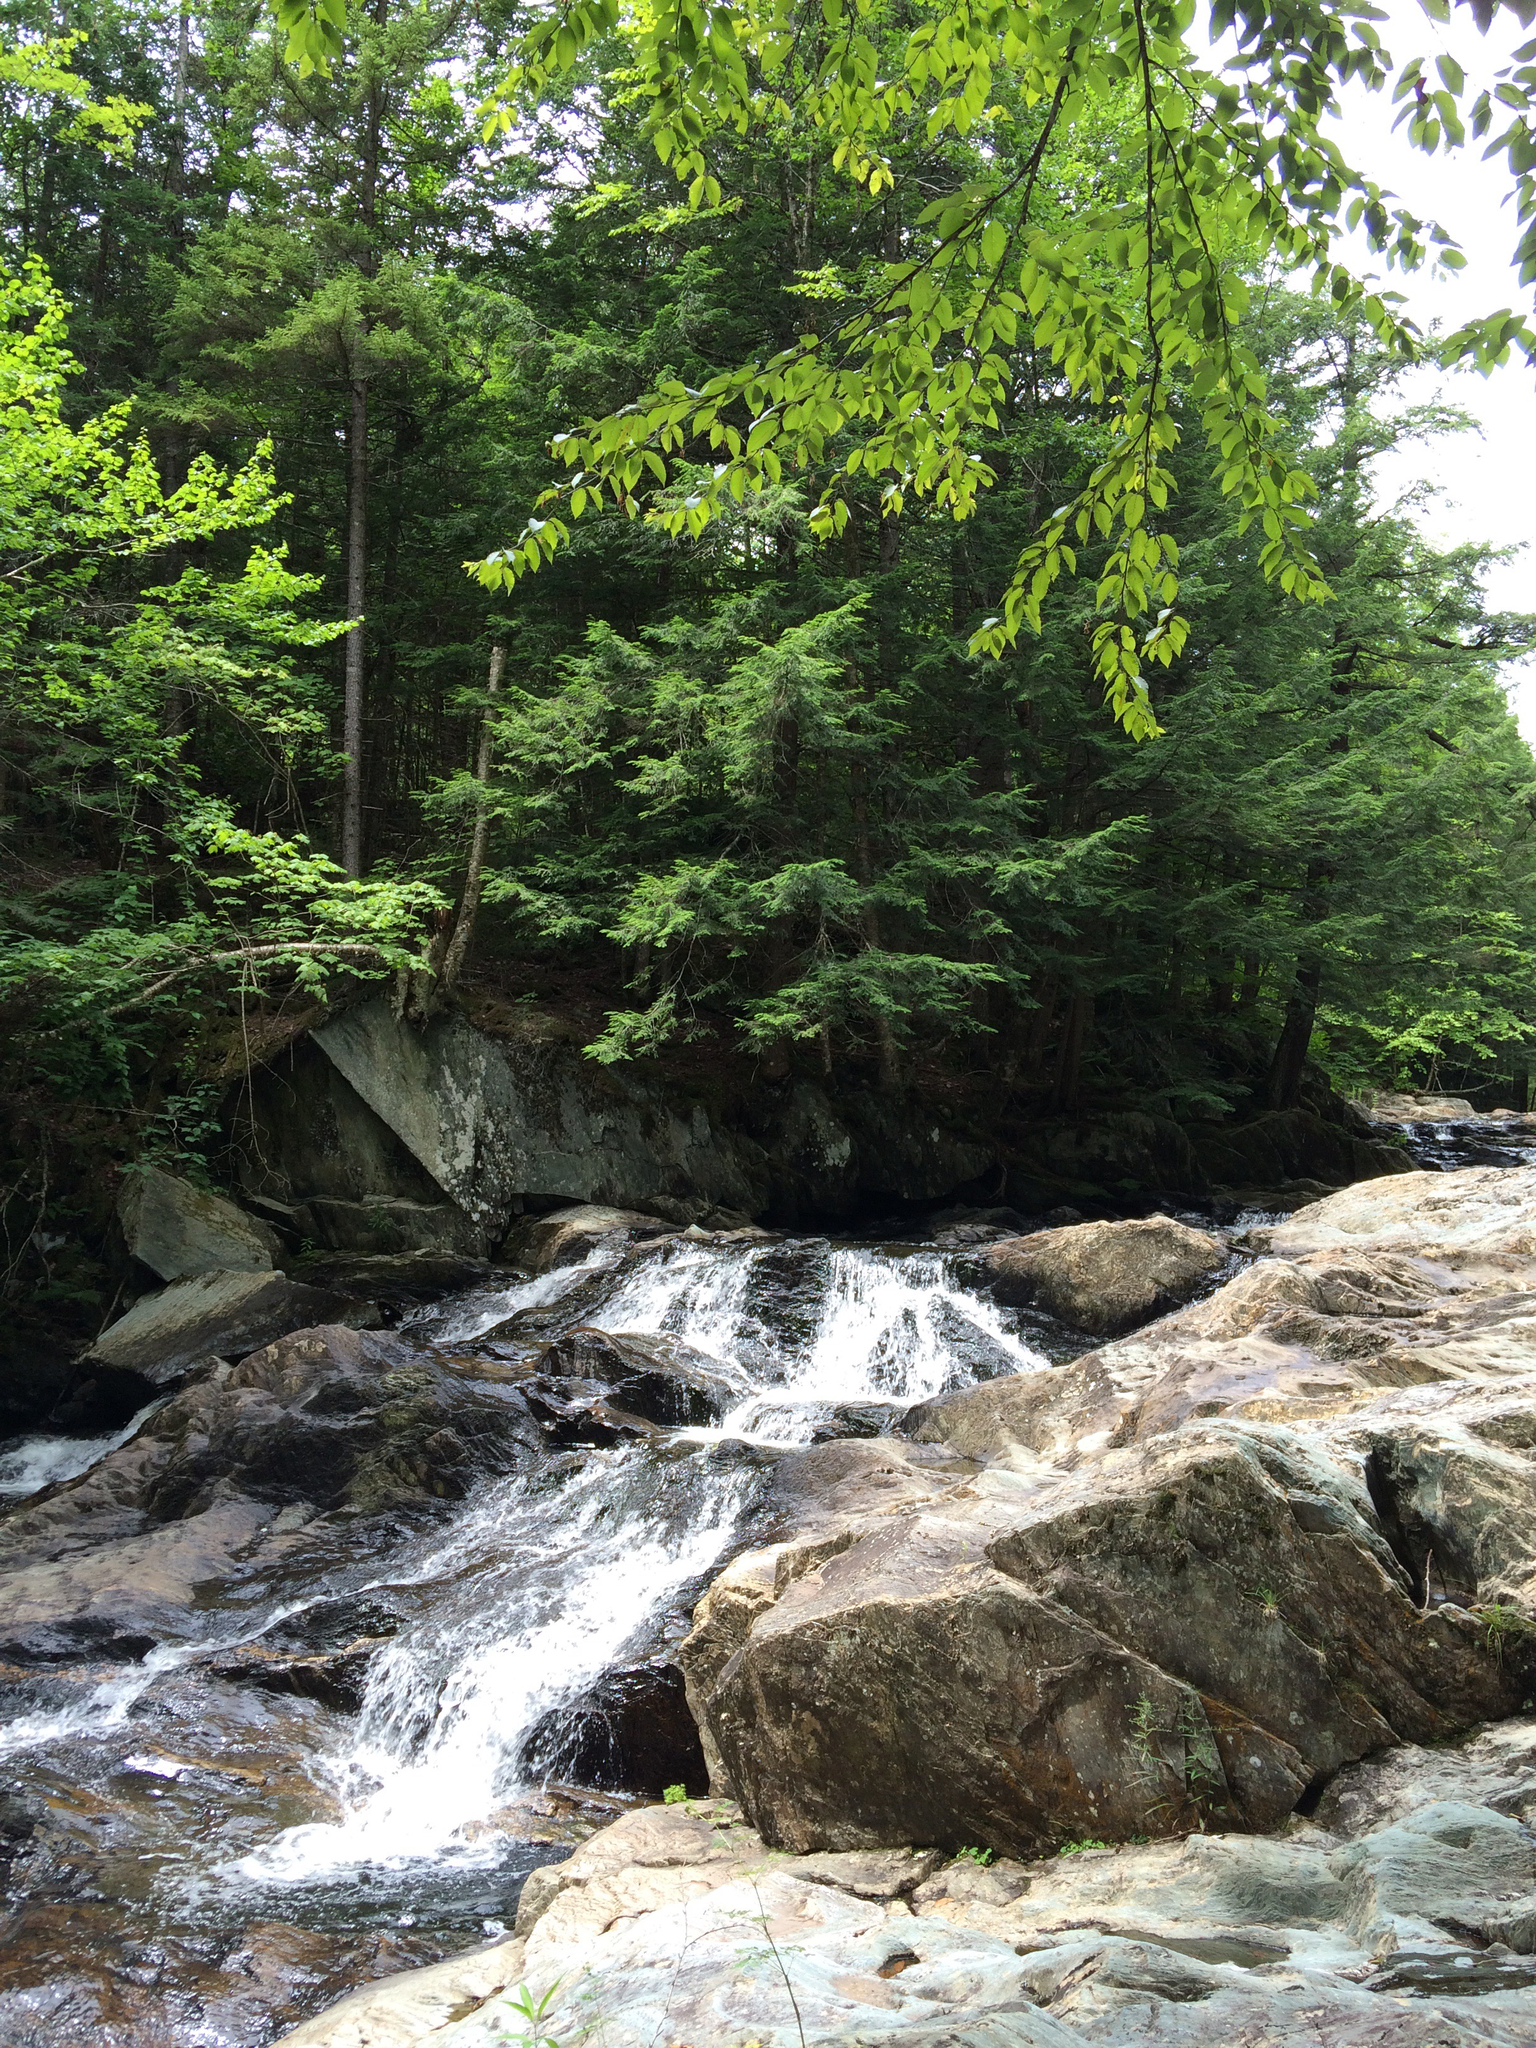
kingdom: Plantae
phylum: Tracheophyta
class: Pinopsida
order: Pinales
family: Pinaceae
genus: Tsuga
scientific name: Tsuga canadensis
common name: Eastern hemlock
